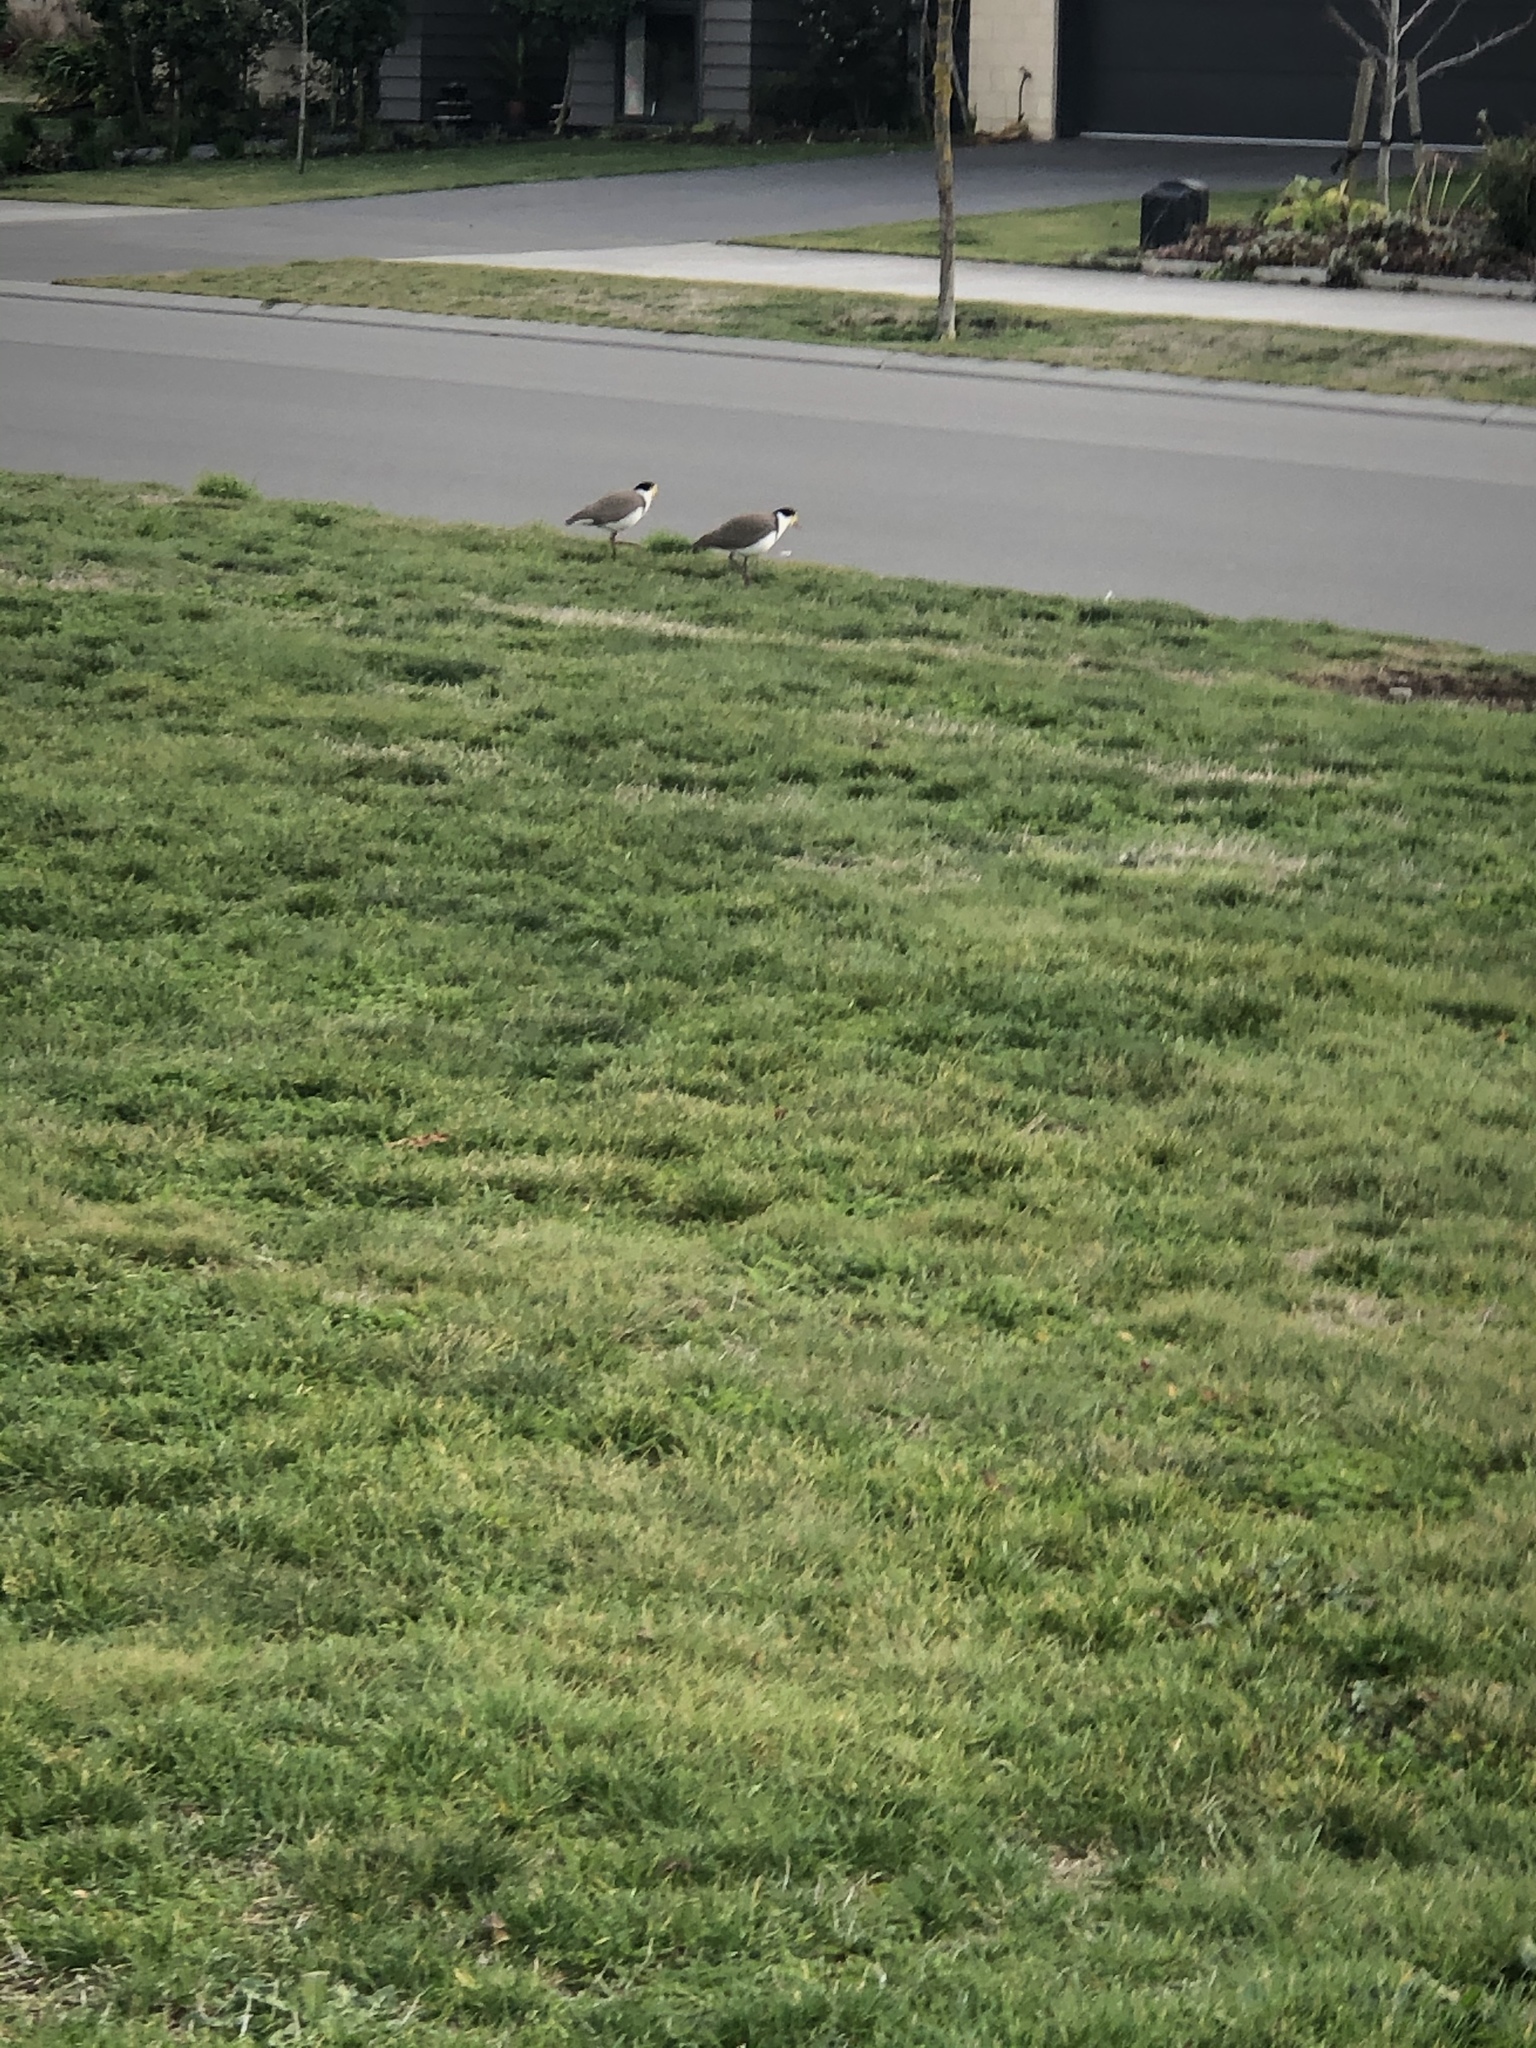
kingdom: Animalia
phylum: Chordata
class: Aves
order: Charadriiformes
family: Charadriidae
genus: Vanellus
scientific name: Vanellus miles
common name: Masked lapwing
